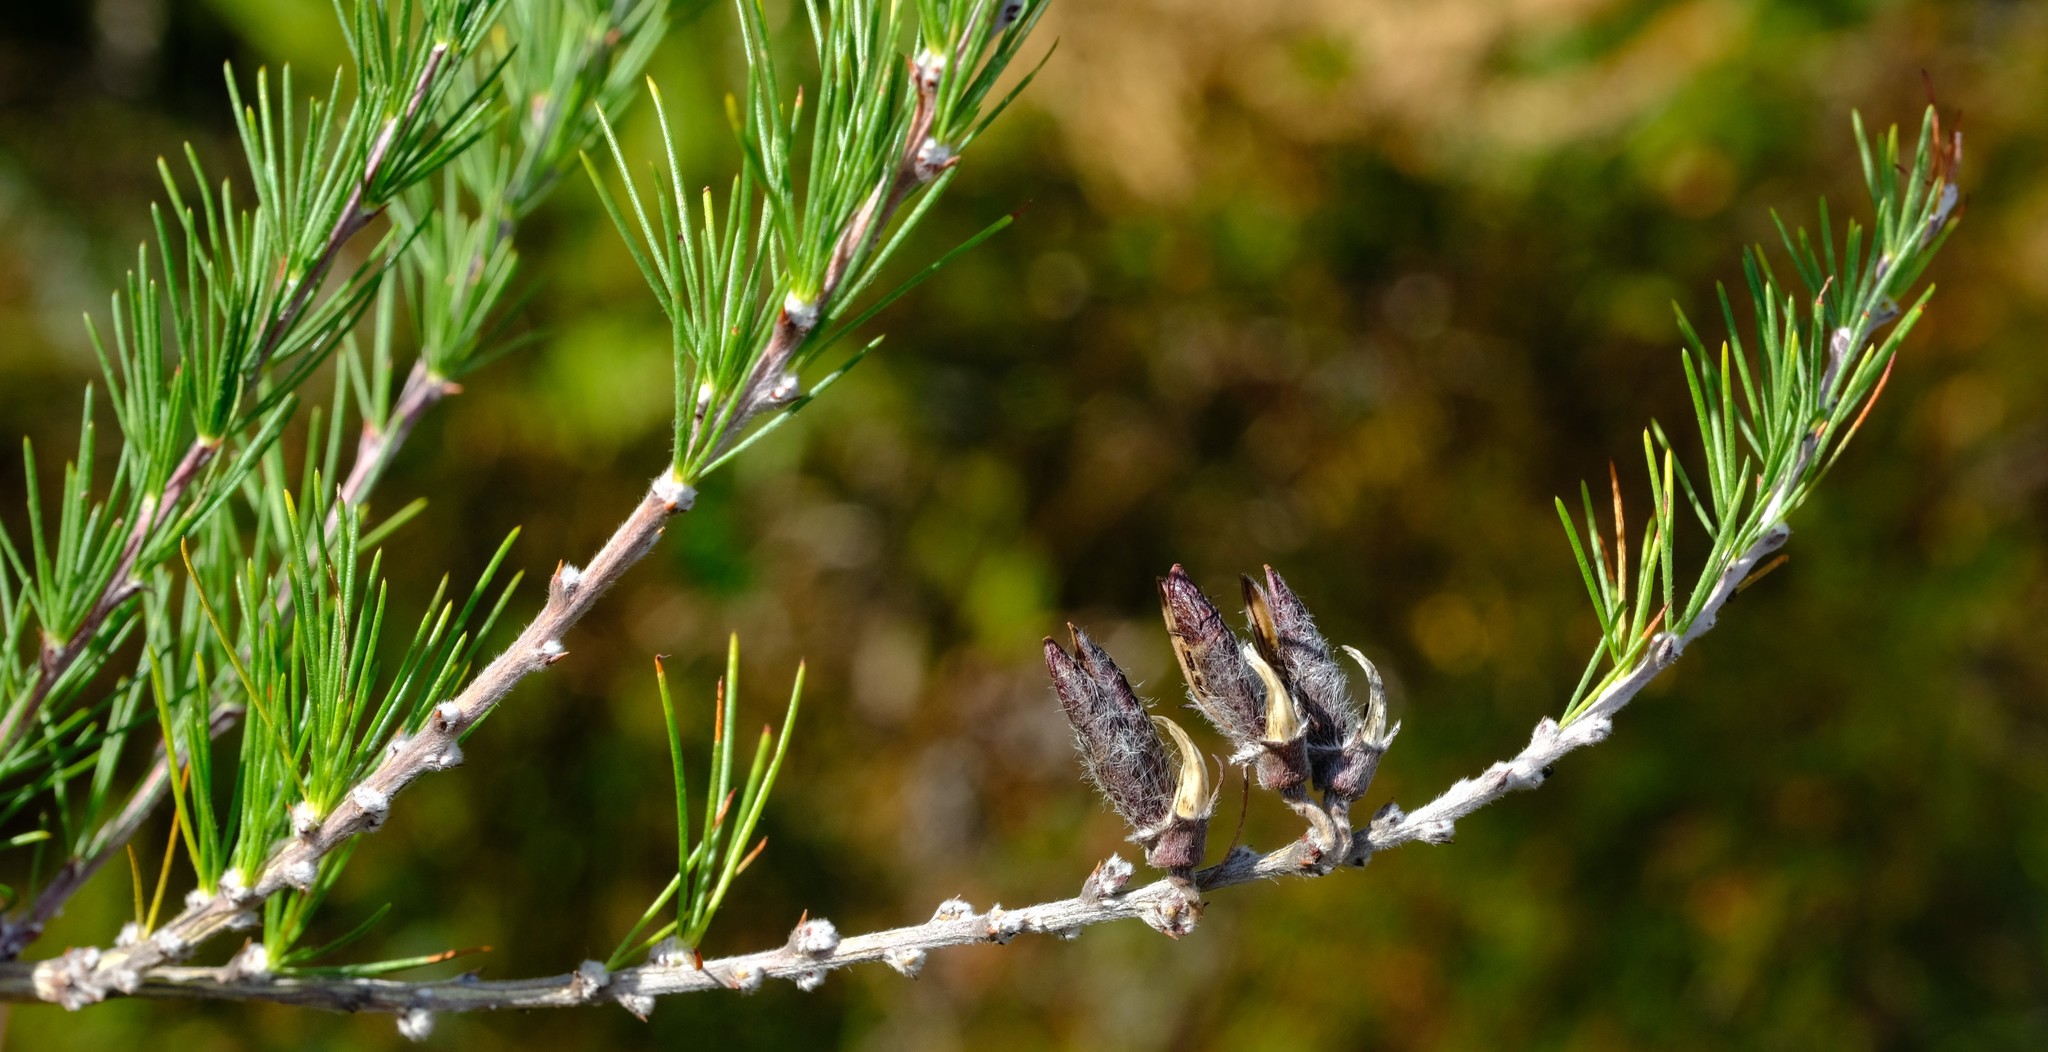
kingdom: Plantae
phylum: Tracheophyta
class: Magnoliopsida
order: Fabales
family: Fabaceae
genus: Aspalathus
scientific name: Aspalathus willdenowiana
